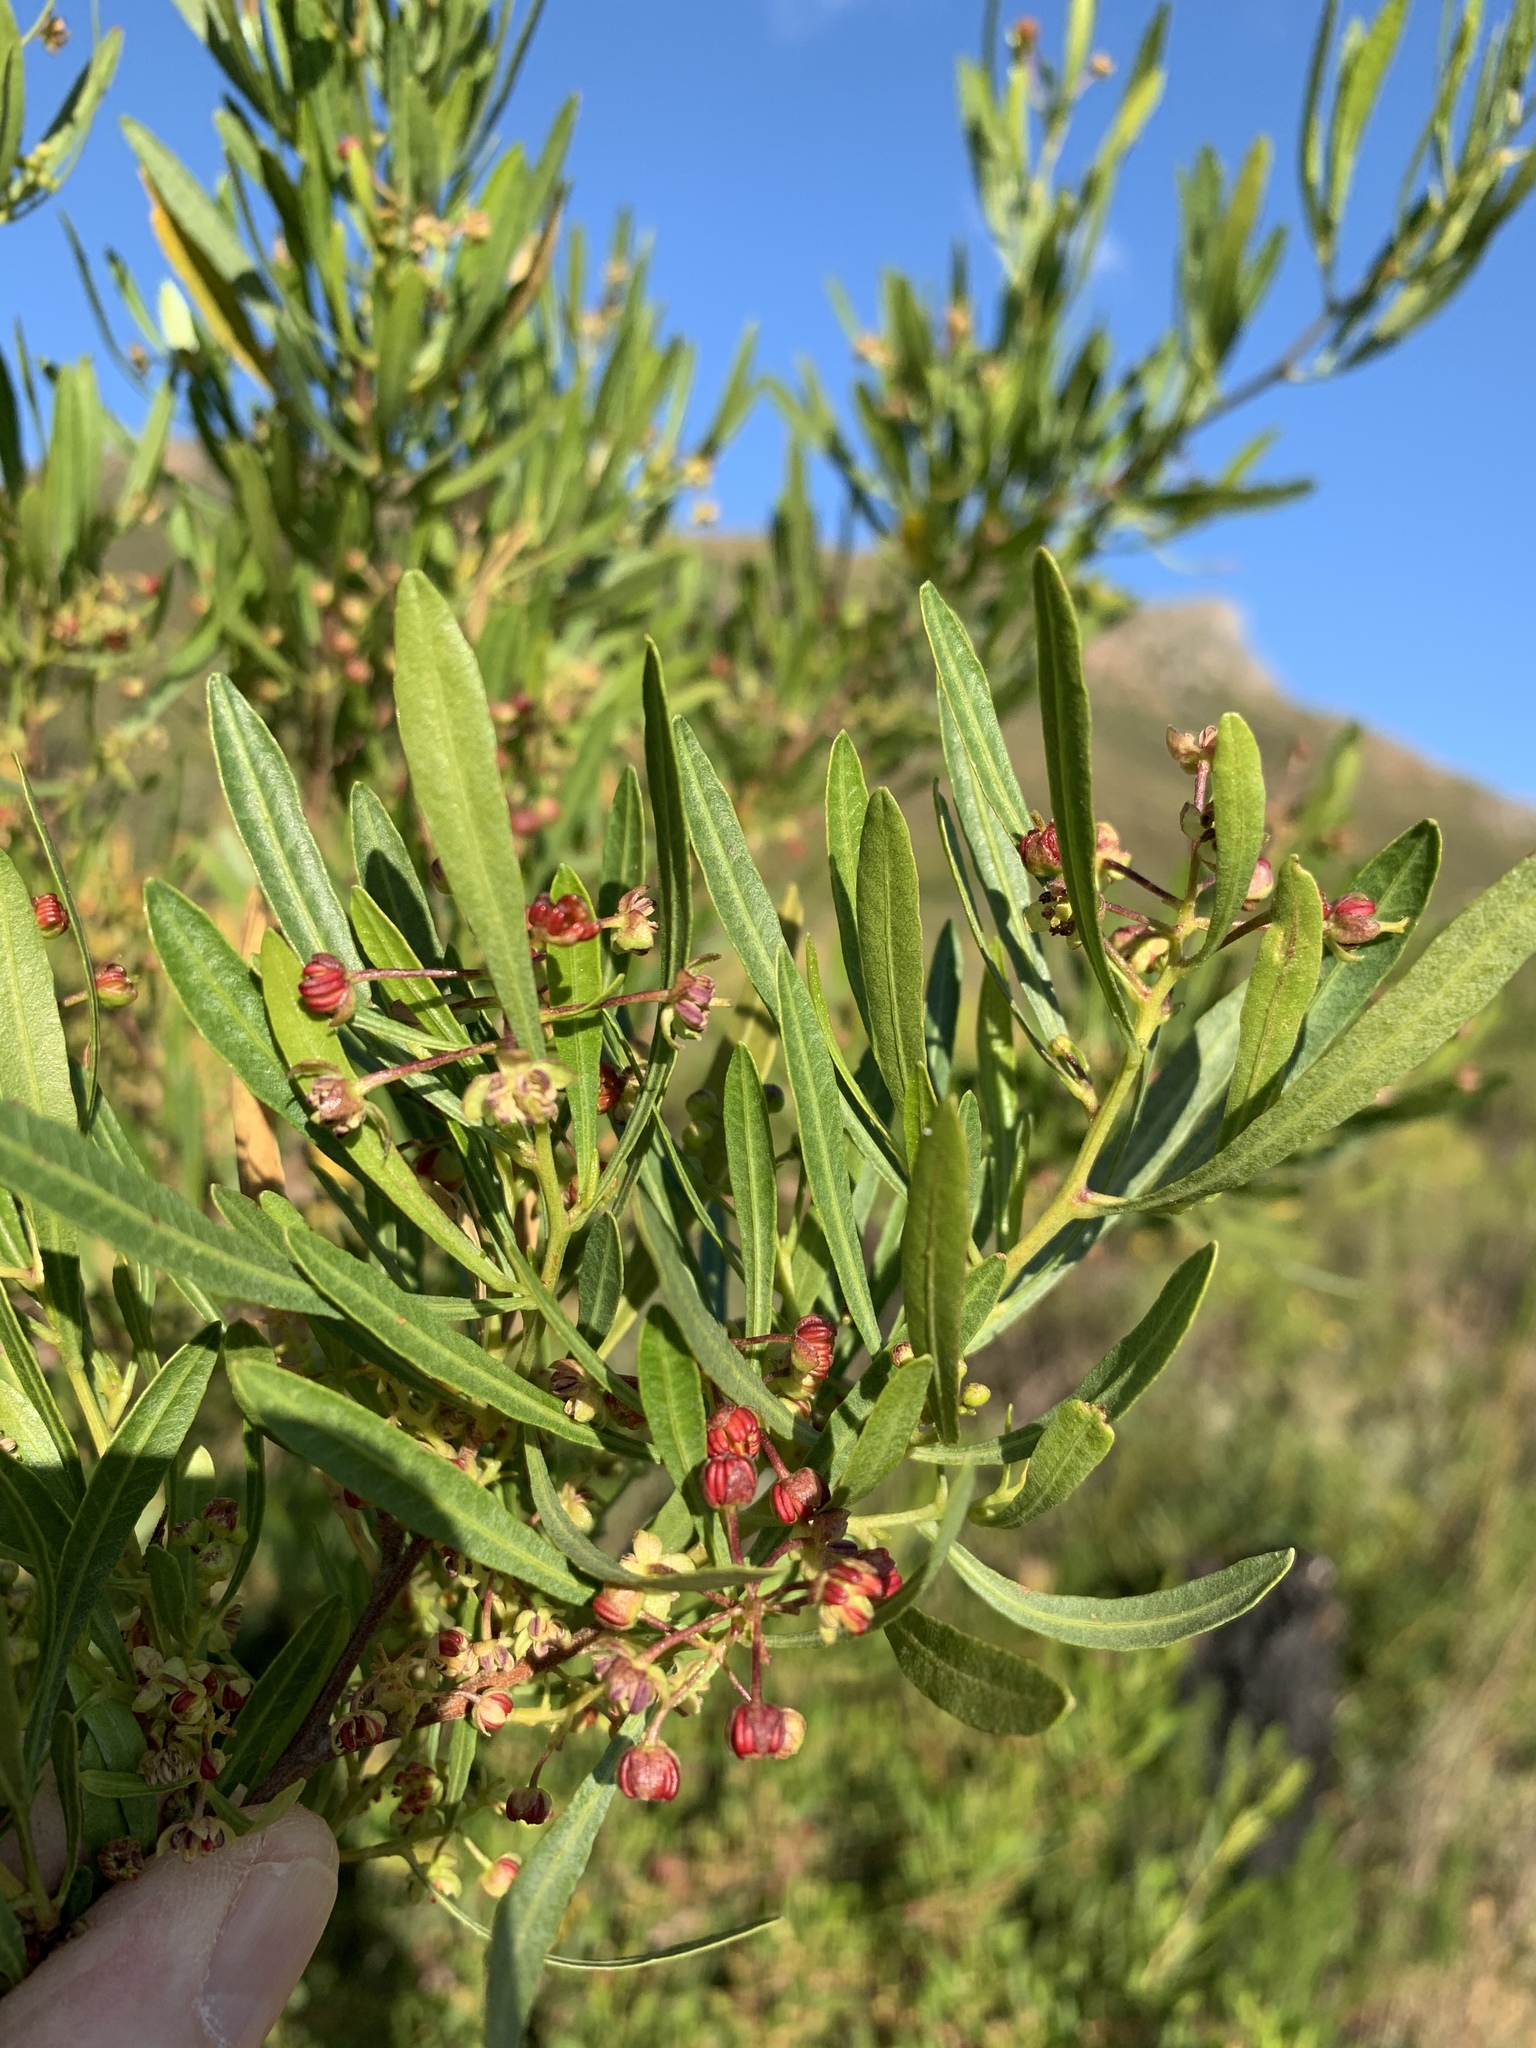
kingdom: Plantae
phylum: Tracheophyta
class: Magnoliopsida
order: Sapindales
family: Sapindaceae
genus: Dodonaea
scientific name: Dodonaea viscosa
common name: Hopbush
